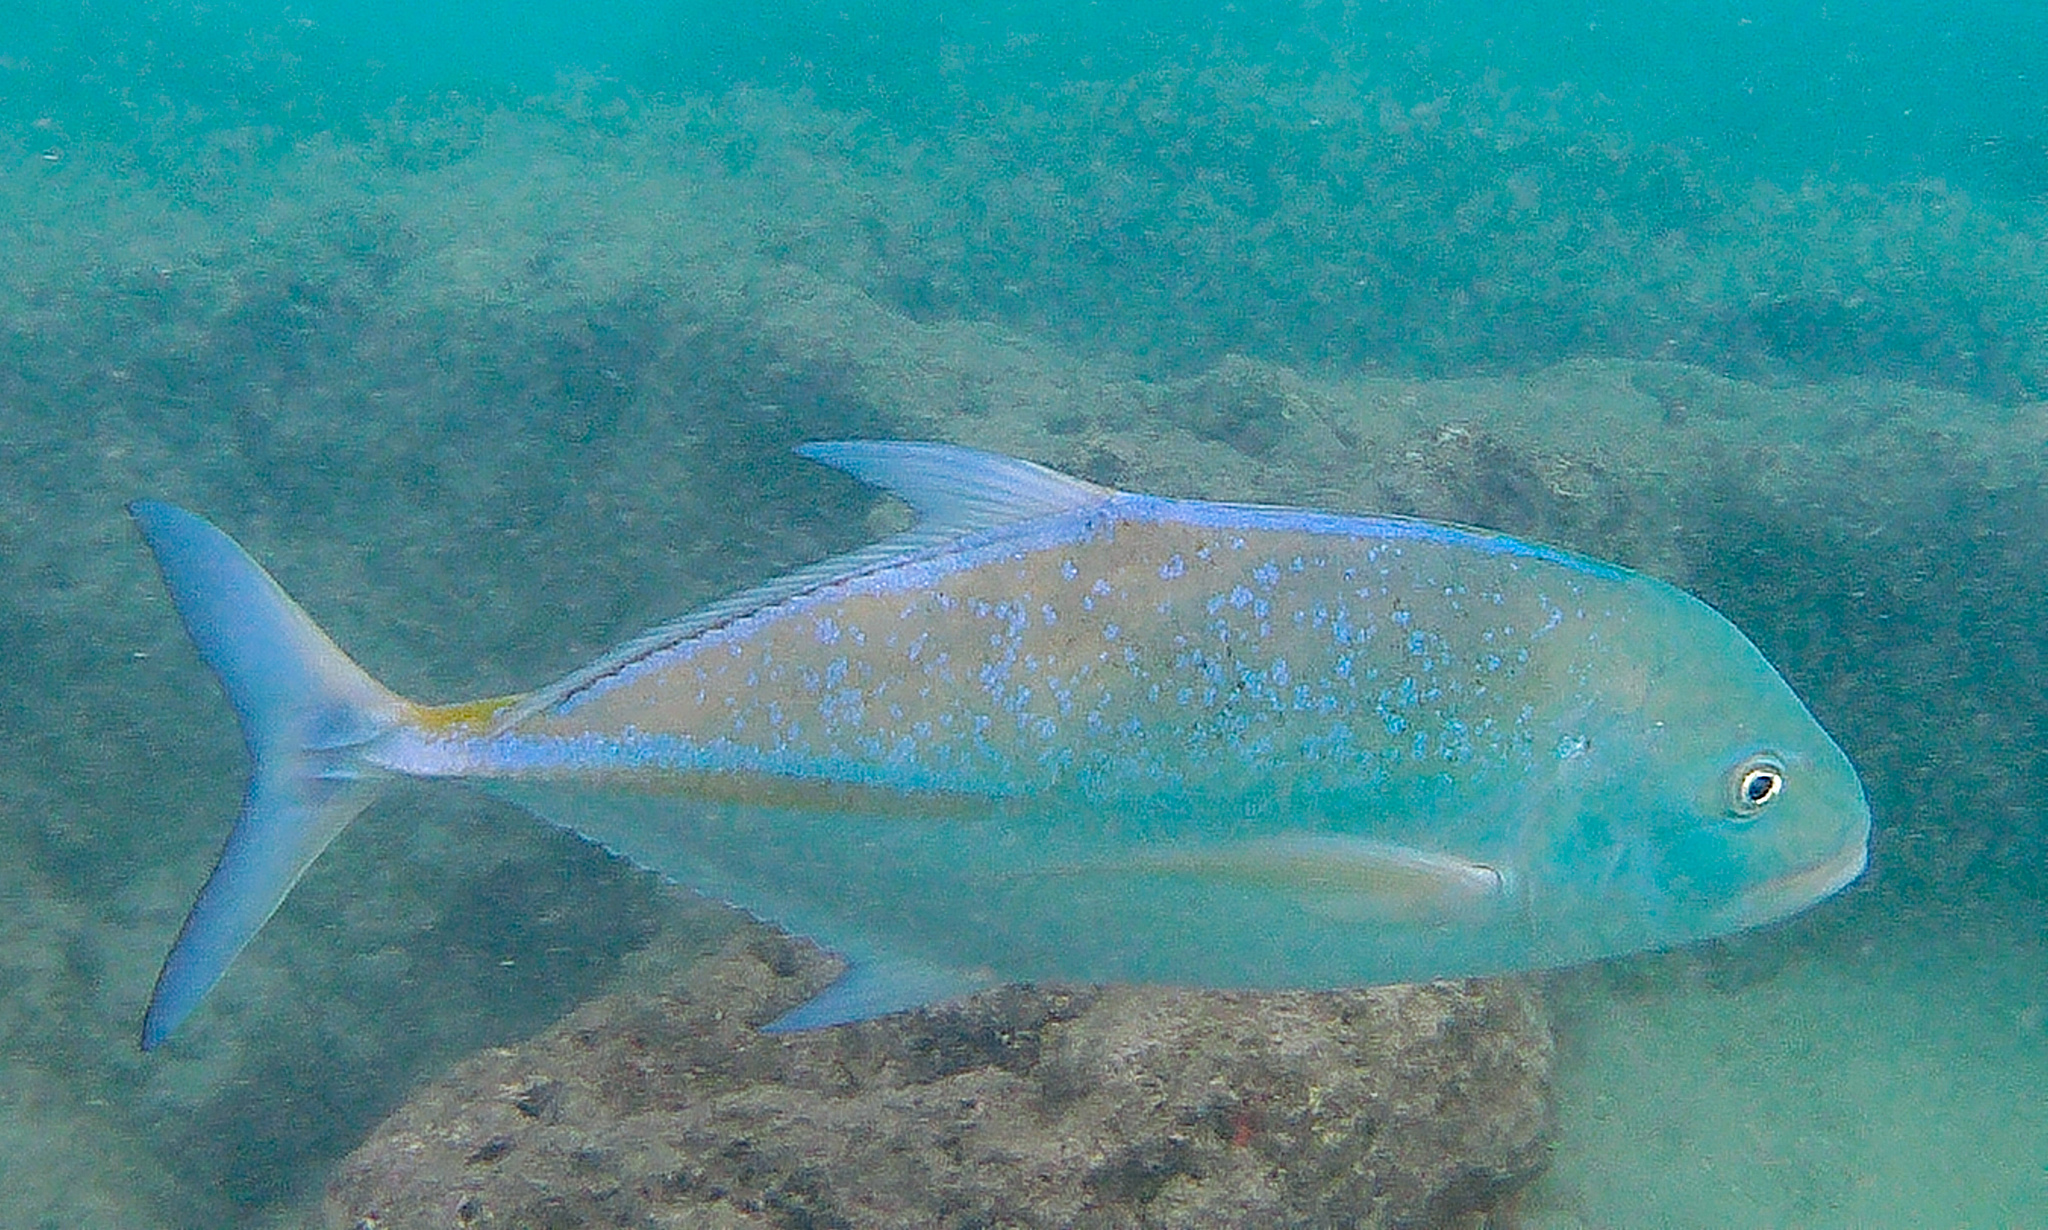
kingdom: Animalia
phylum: Chordata
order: Perciformes
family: Carangidae
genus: Caranx
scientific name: Caranx melampygus
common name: Bluefin trevally
